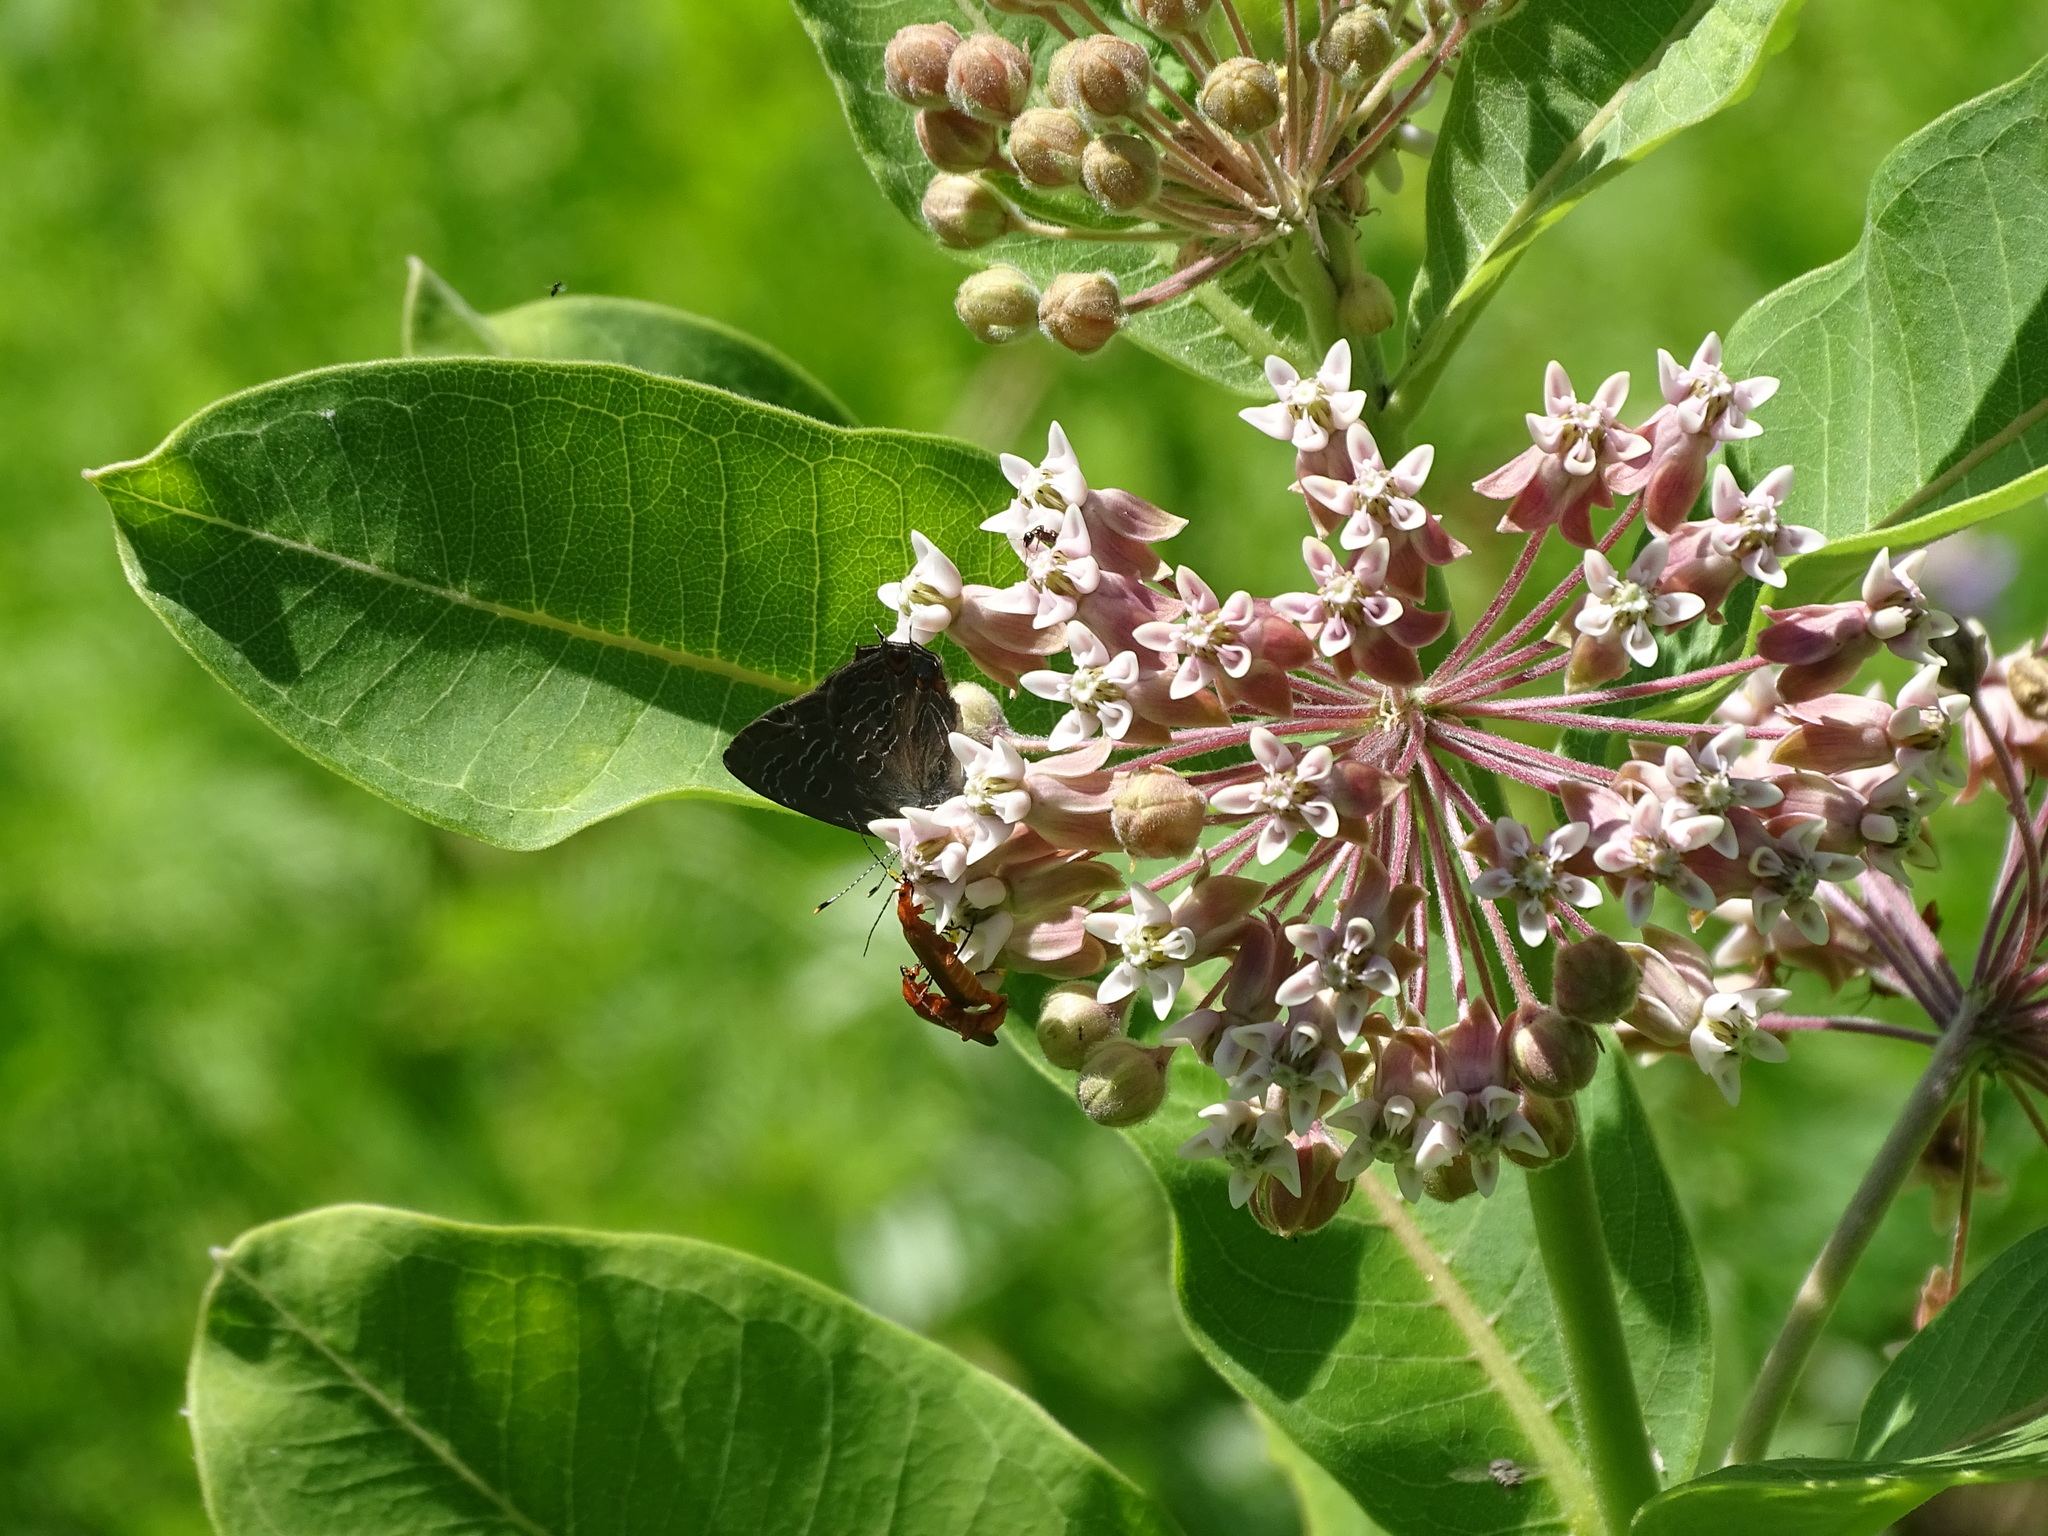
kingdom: Animalia
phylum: Arthropoda
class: Insecta
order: Lepidoptera
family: Lycaenidae
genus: Satyrium
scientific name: Satyrium liparops
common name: Striped hairstreak
